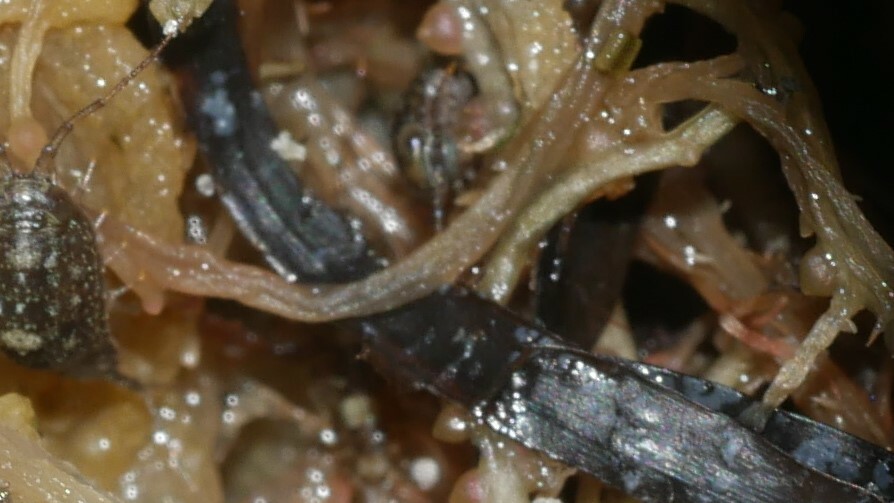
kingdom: Animalia
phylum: Arthropoda
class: Malacostraca
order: Isopoda
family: Ligiidae
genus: Ligia
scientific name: Ligia exotica
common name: Wharf roach
